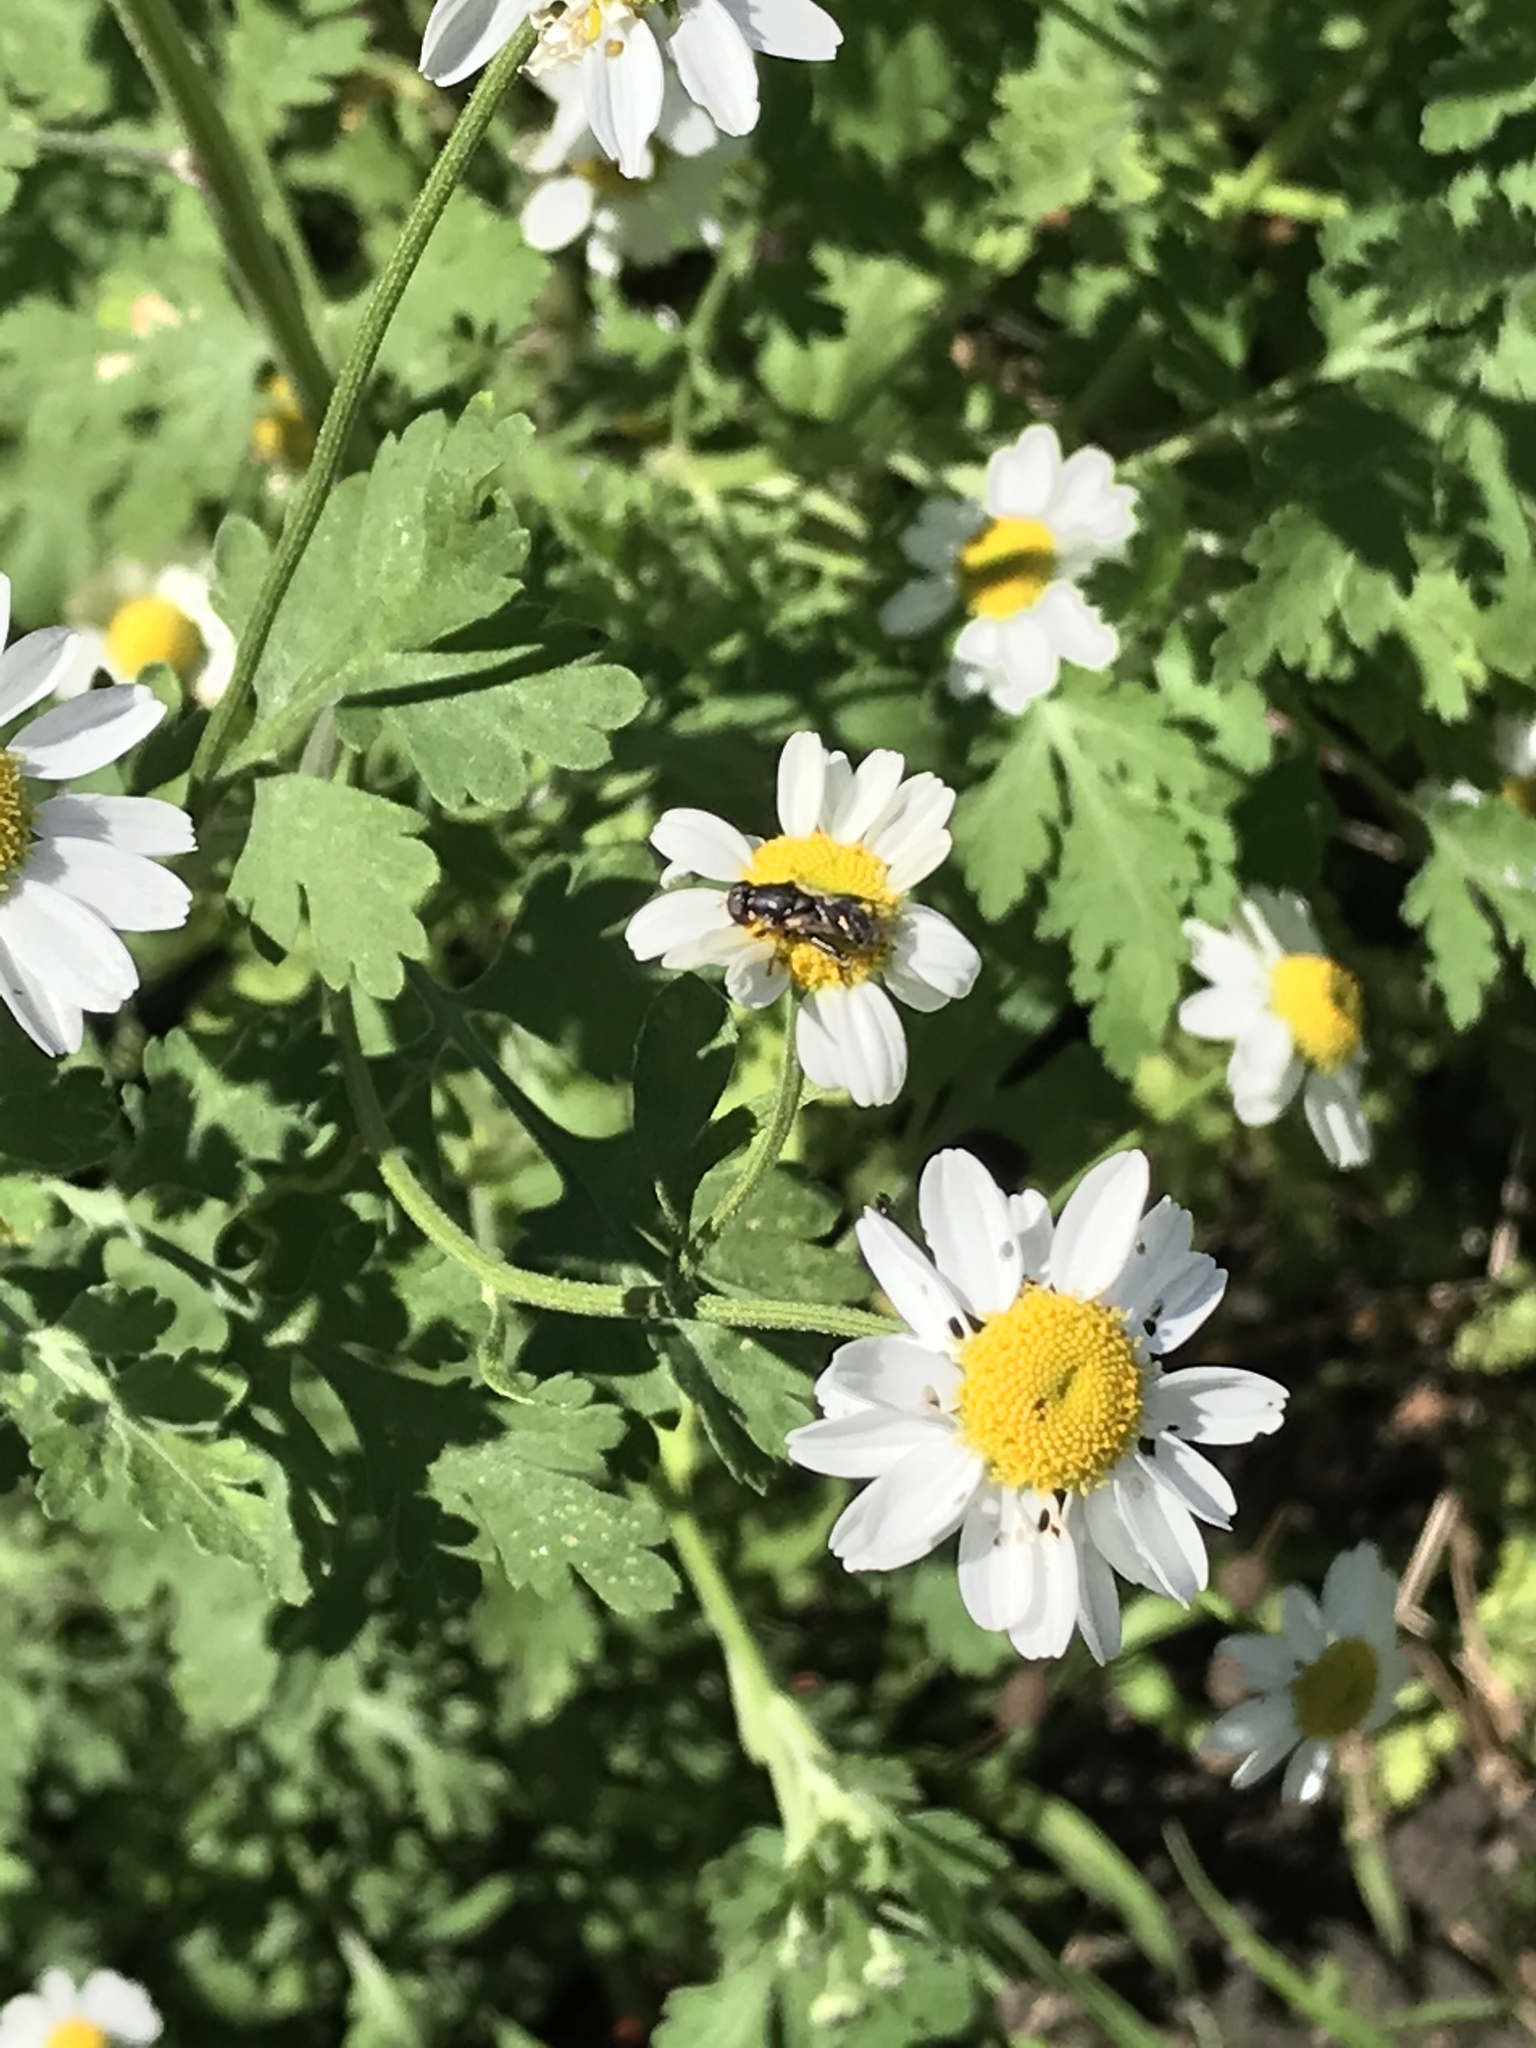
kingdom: Animalia
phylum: Arthropoda
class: Insecta
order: Diptera
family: Syrphidae
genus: Syritta
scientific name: Syritta pipiens
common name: Hover fly
